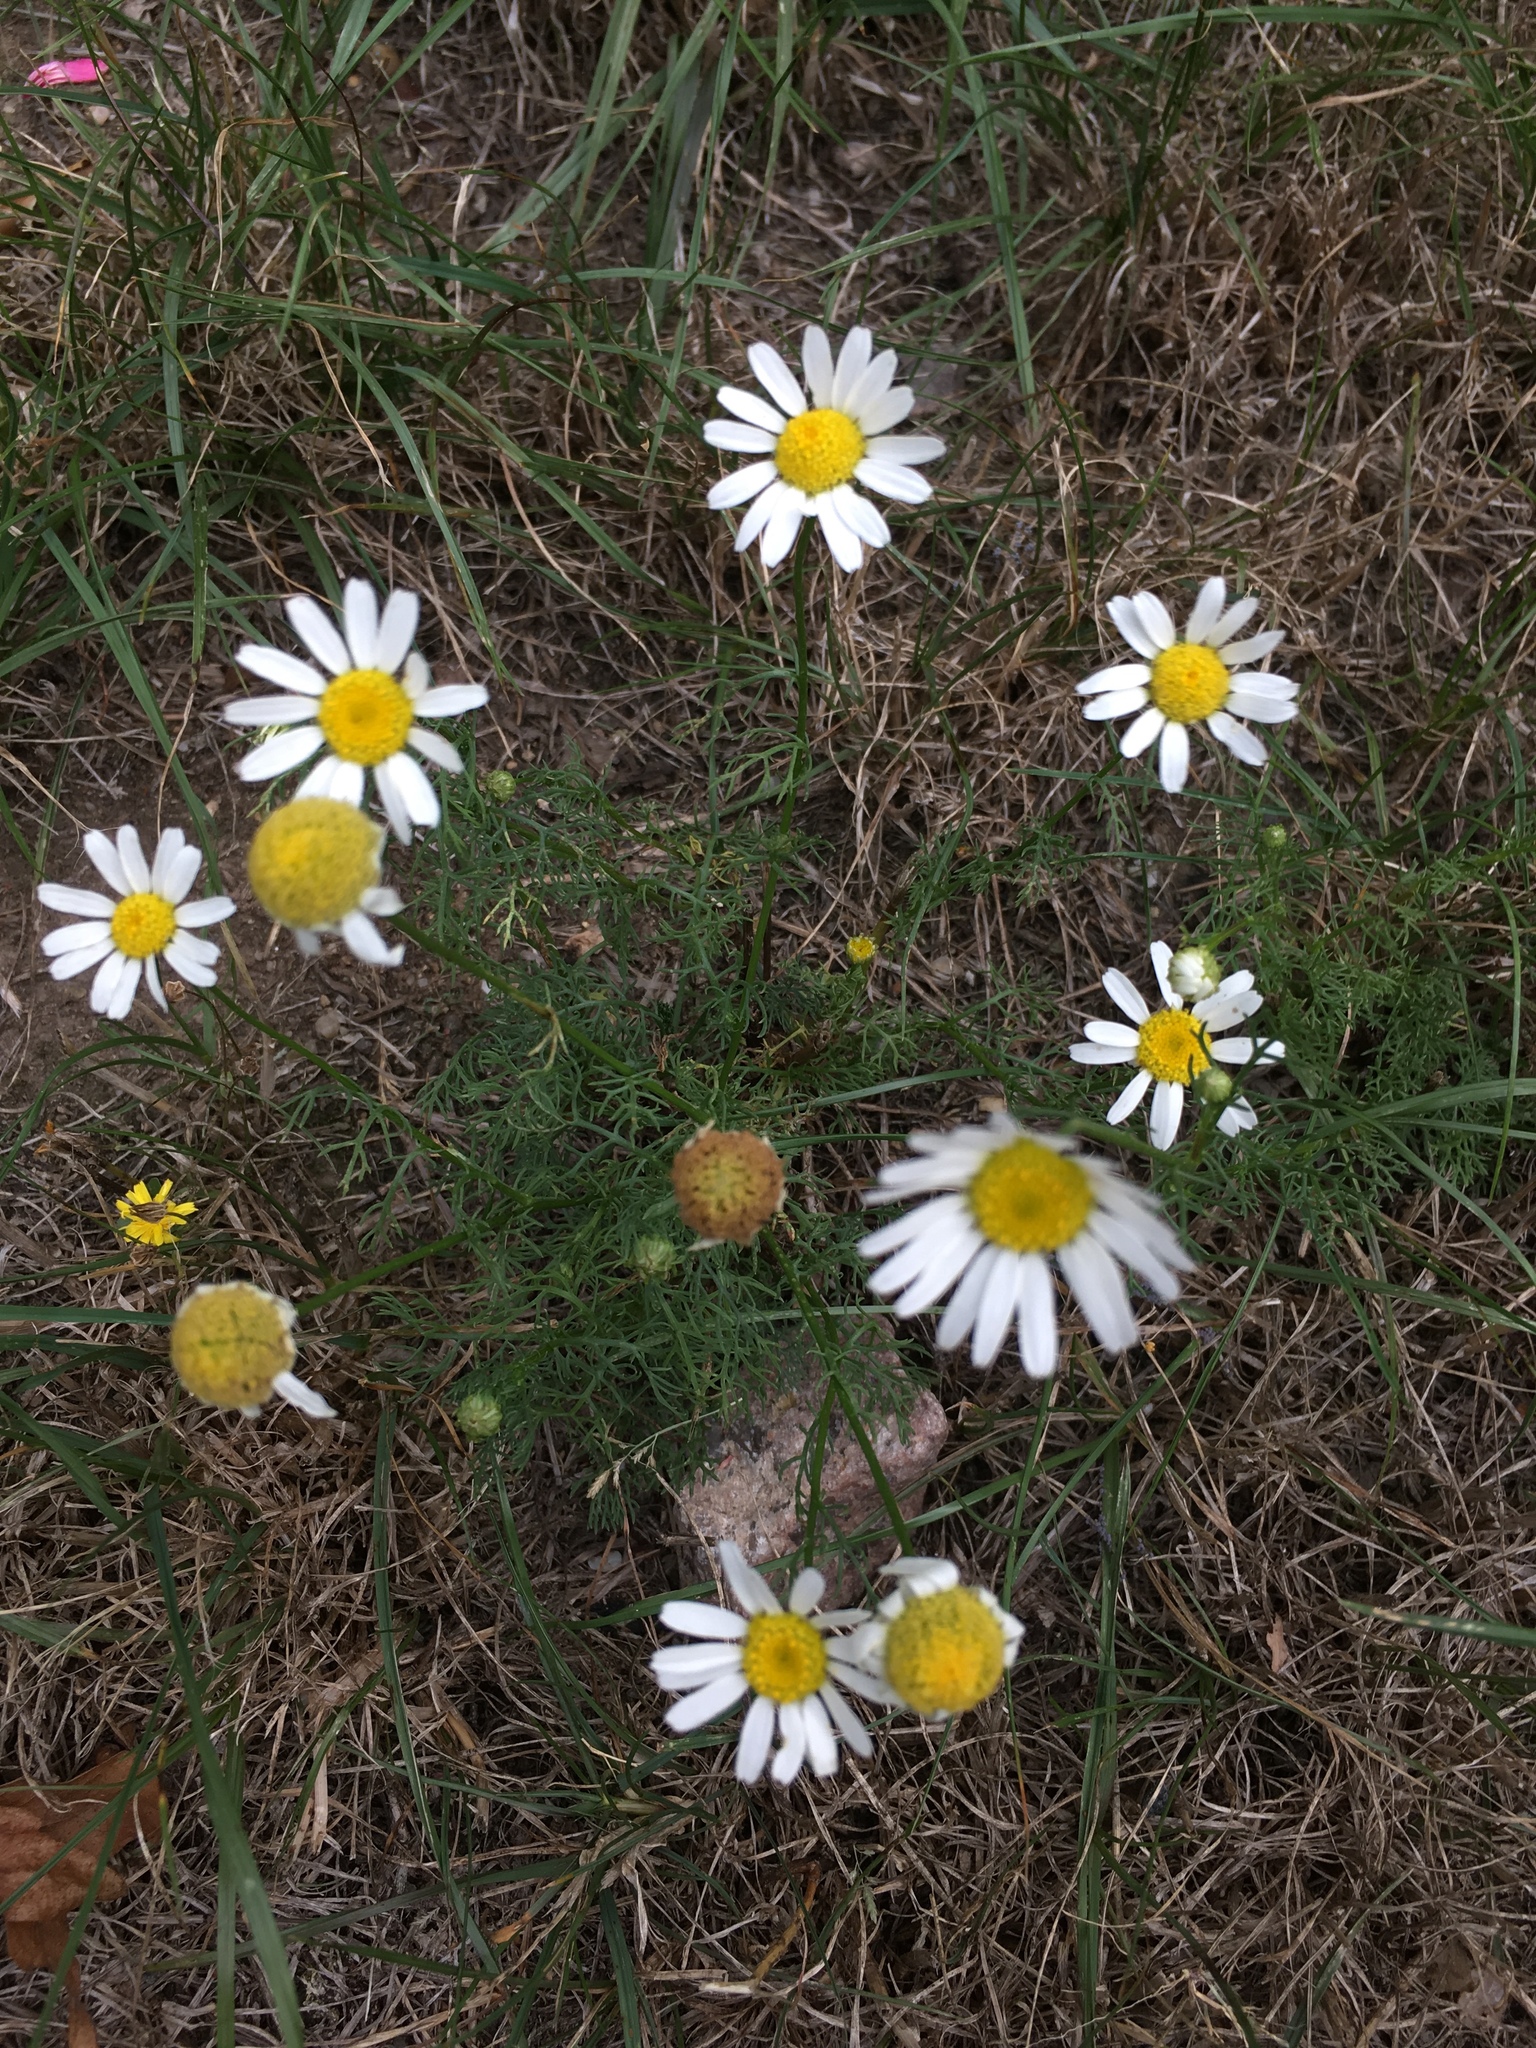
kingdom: Plantae
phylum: Tracheophyta
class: Magnoliopsida
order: Asterales
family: Asteraceae
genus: Tripleurospermum
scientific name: Tripleurospermum inodorum
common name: Scentless mayweed
